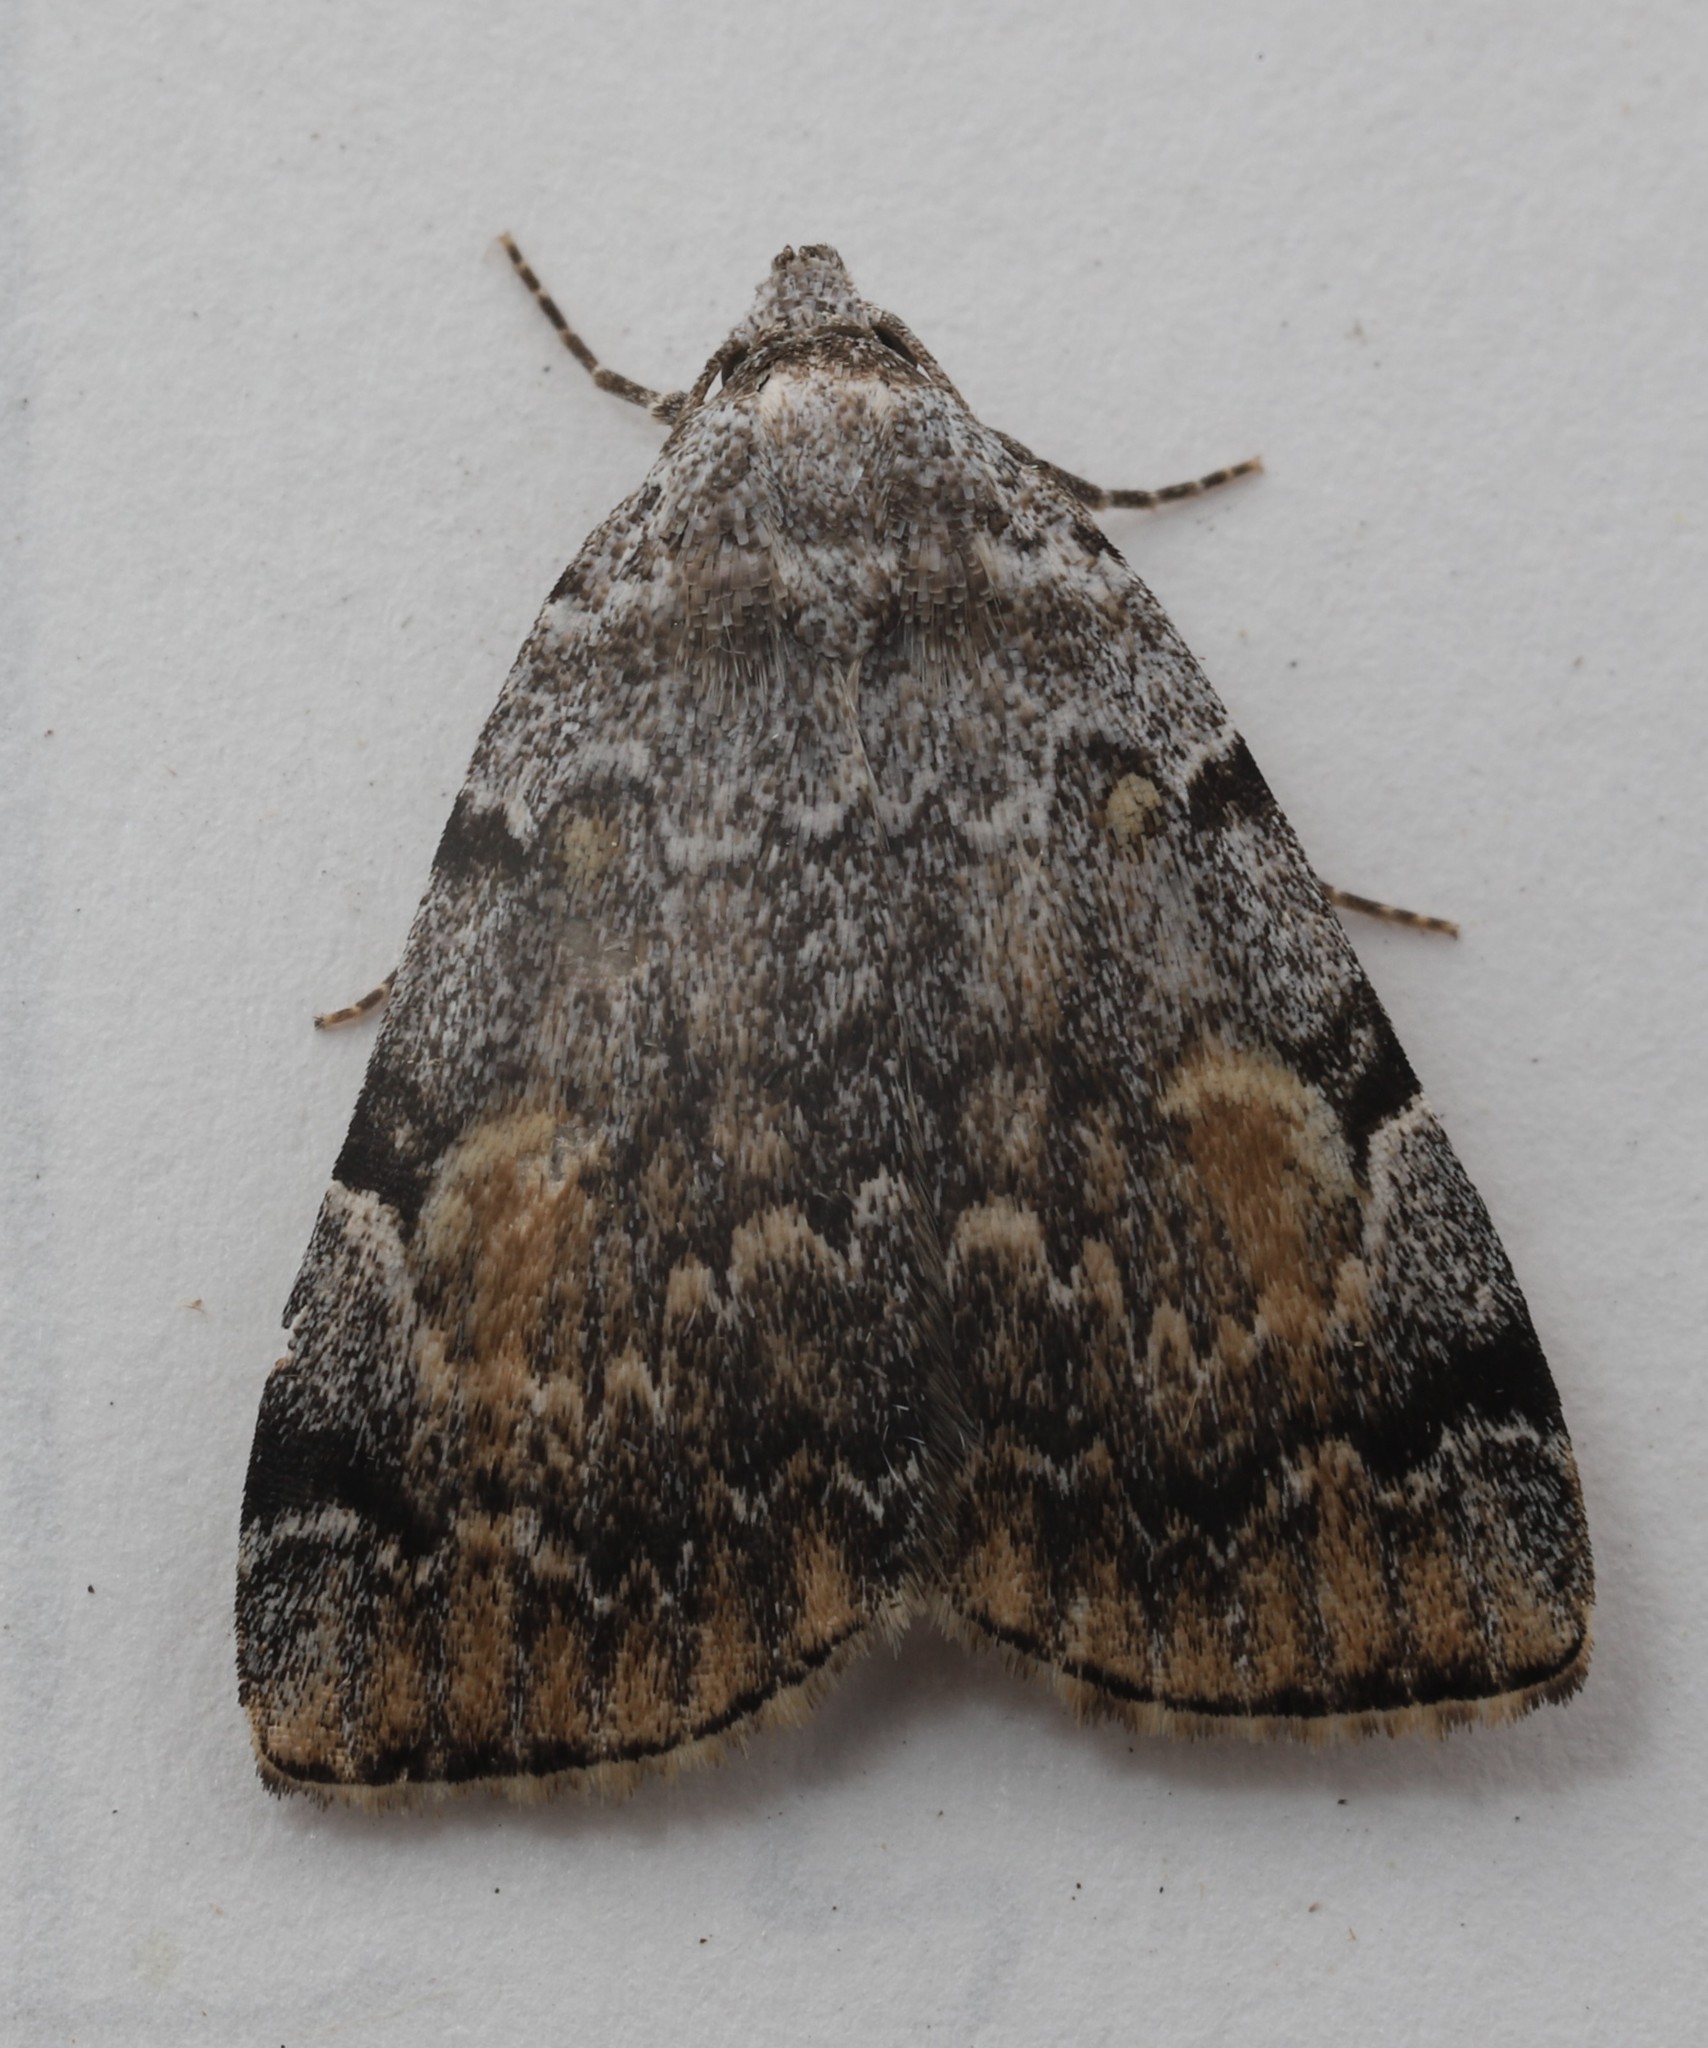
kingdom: Animalia
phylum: Arthropoda
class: Insecta
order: Lepidoptera
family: Erebidae
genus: Idia
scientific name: Idia americalis
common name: American idia moth
